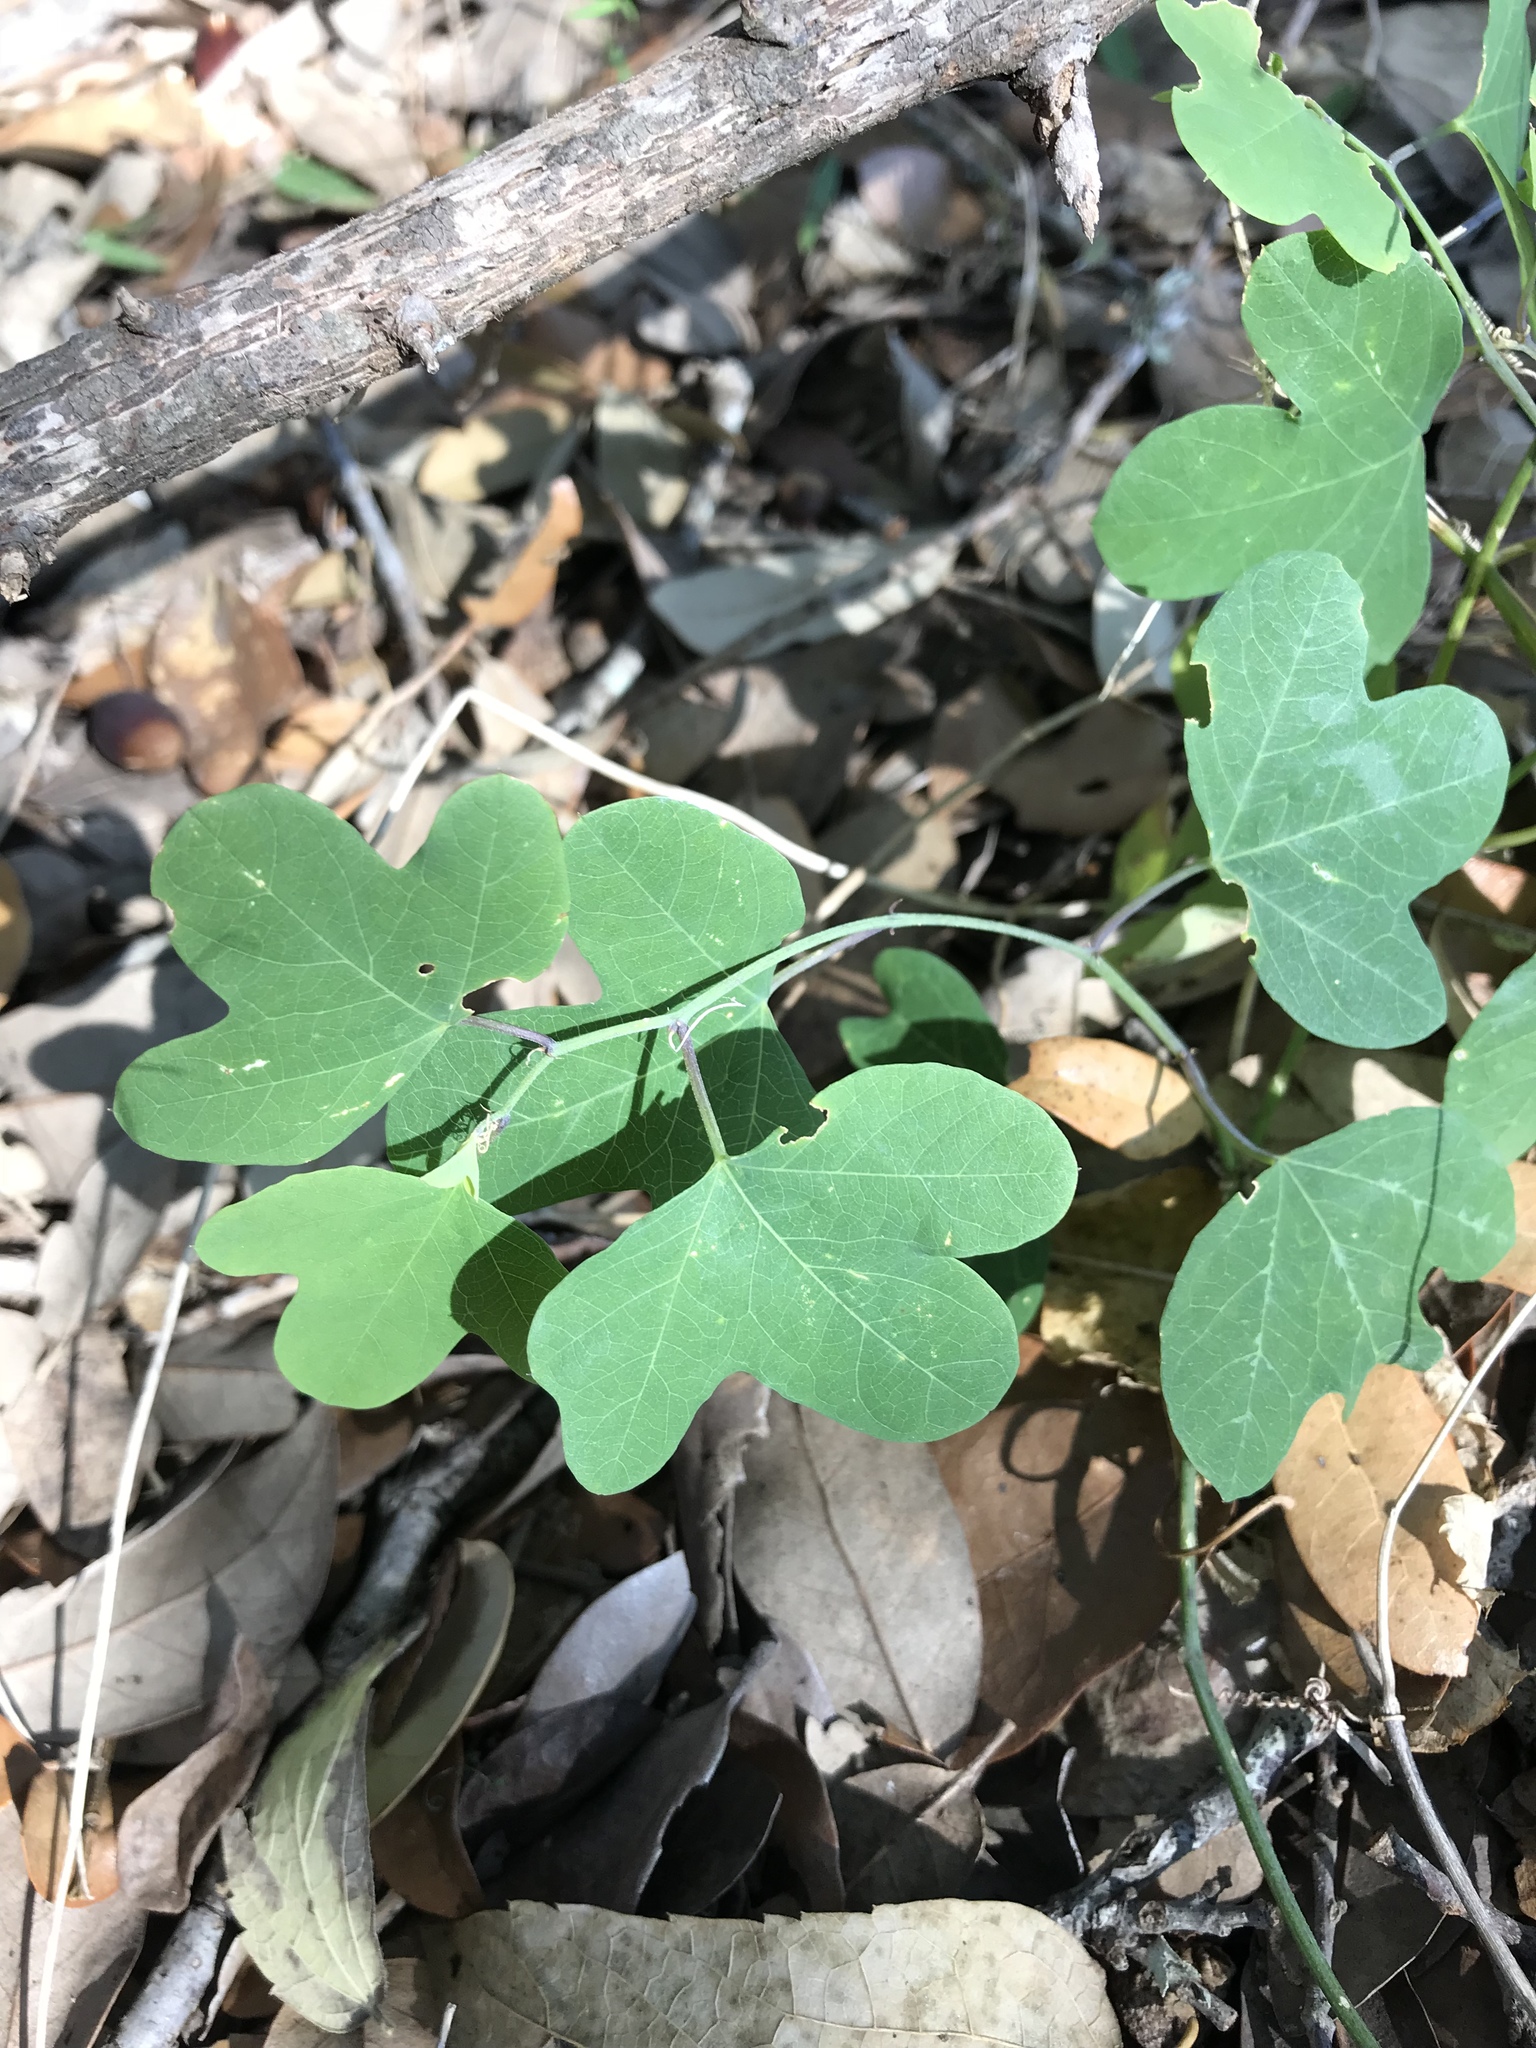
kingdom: Plantae
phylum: Tracheophyta
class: Magnoliopsida
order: Malpighiales
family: Passifloraceae
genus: Passiflora
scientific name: Passiflora affinis
